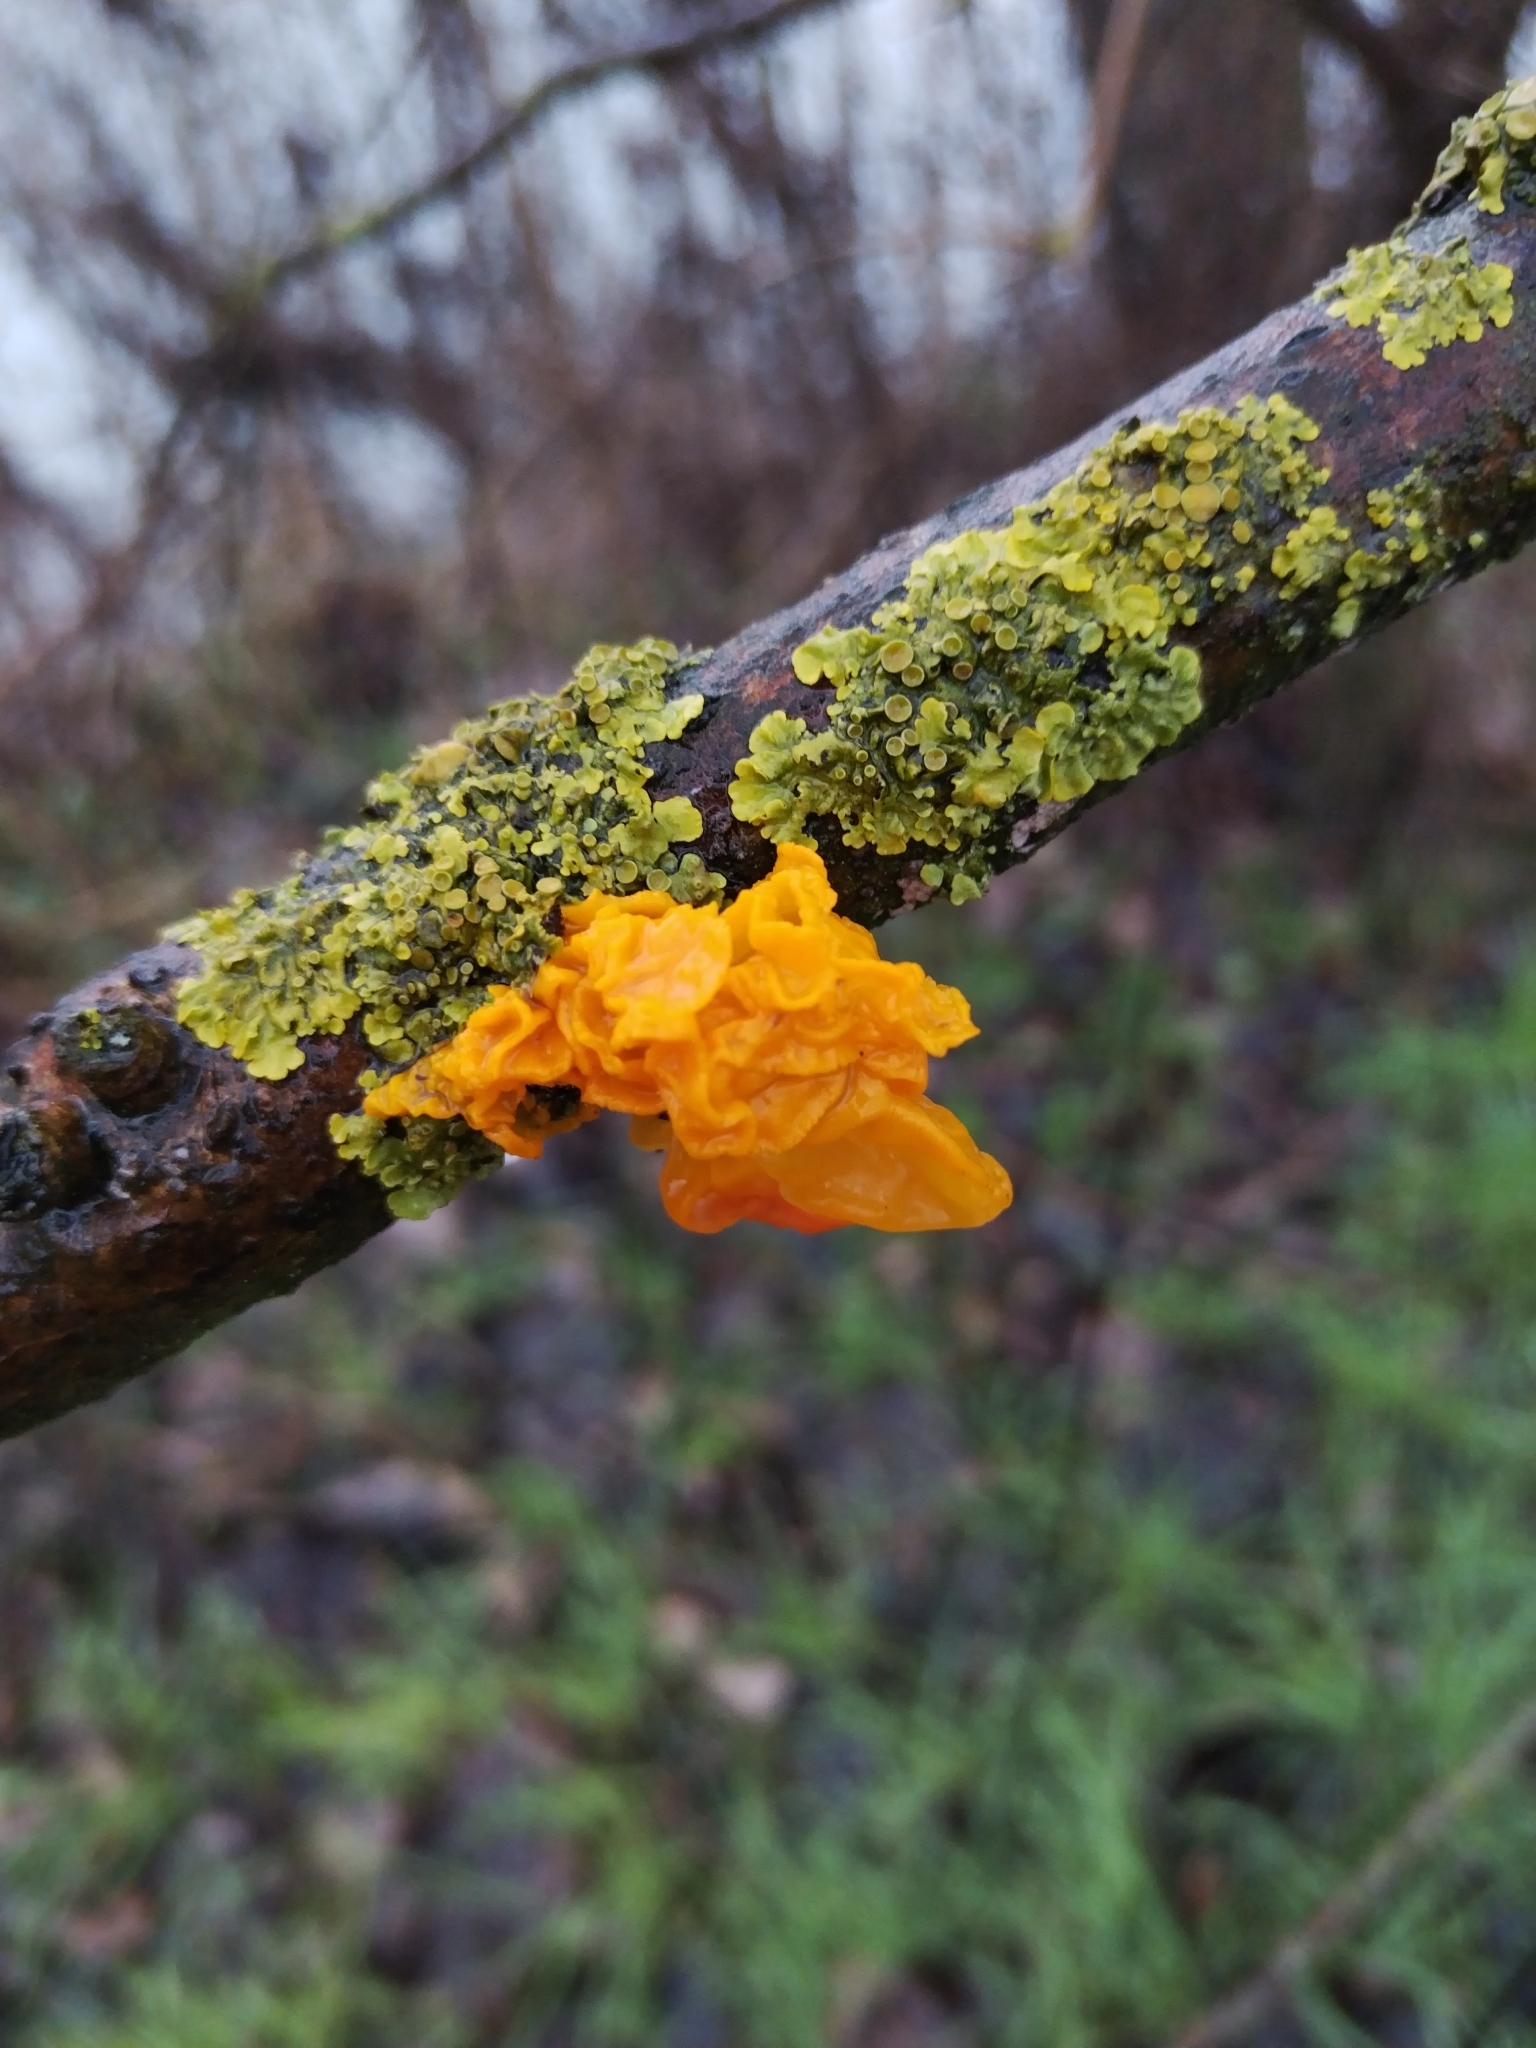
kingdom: Fungi
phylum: Basidiomycota
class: Tremellomycetes
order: Tremellales
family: Tremellaceae
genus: Tremella
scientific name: Tremella mesenterica
